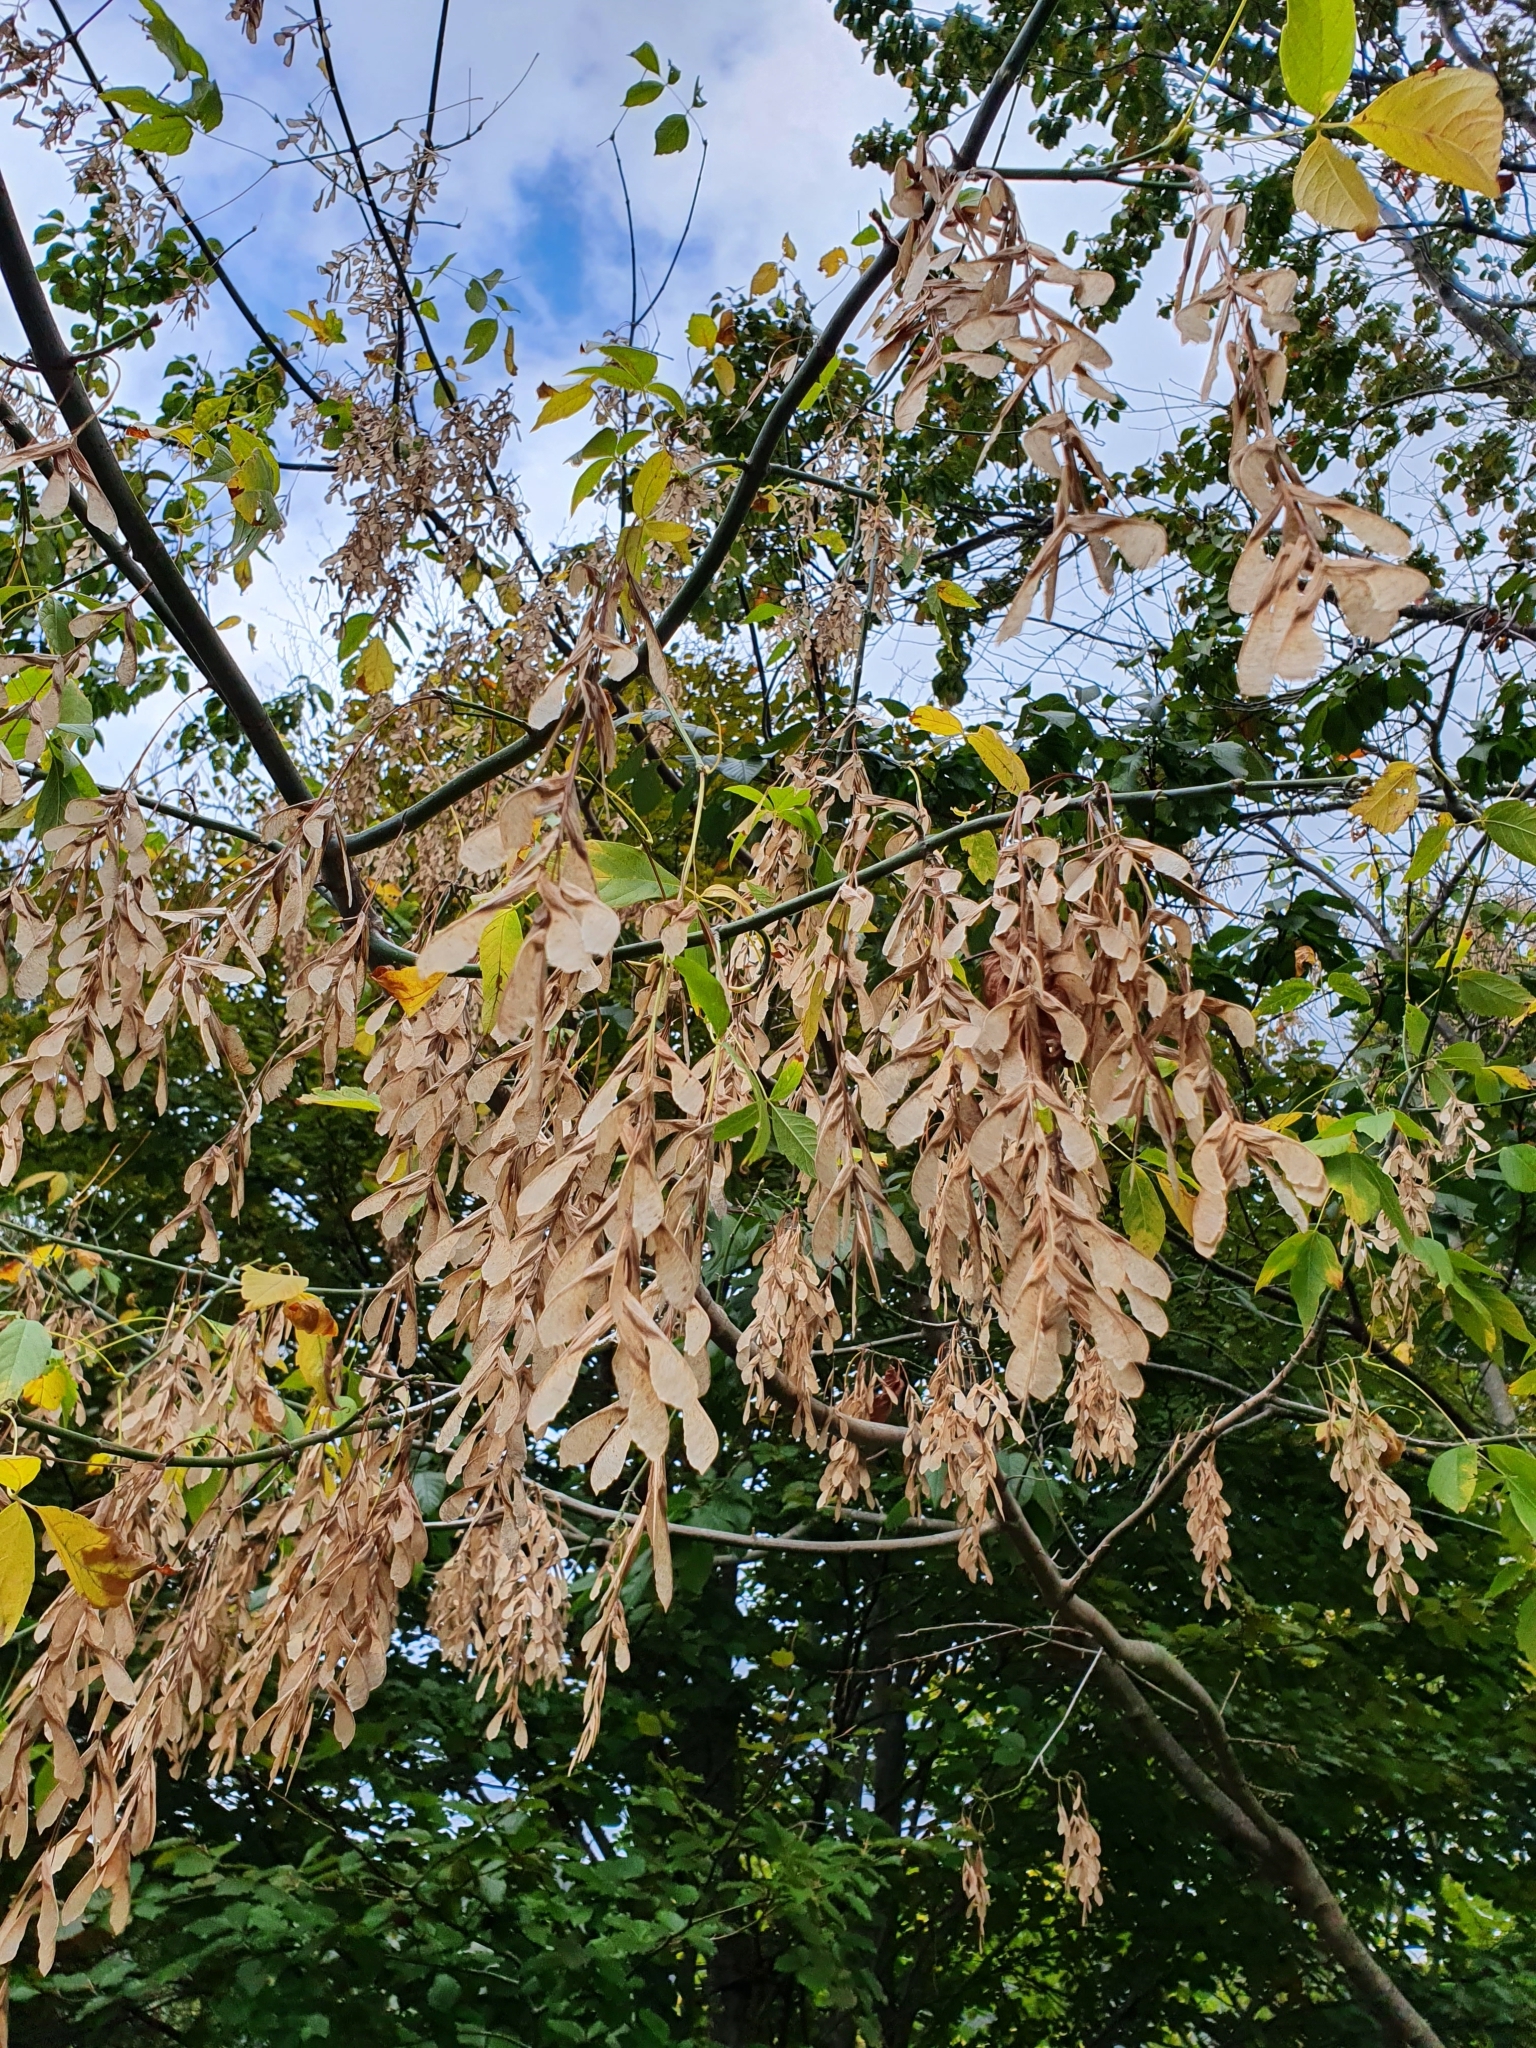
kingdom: Plantae
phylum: Tracheophyta
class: Magnoliopsida
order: Sapindales
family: Sapindaceae
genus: Acer
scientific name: Acer negundo
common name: Ashleaf maple
